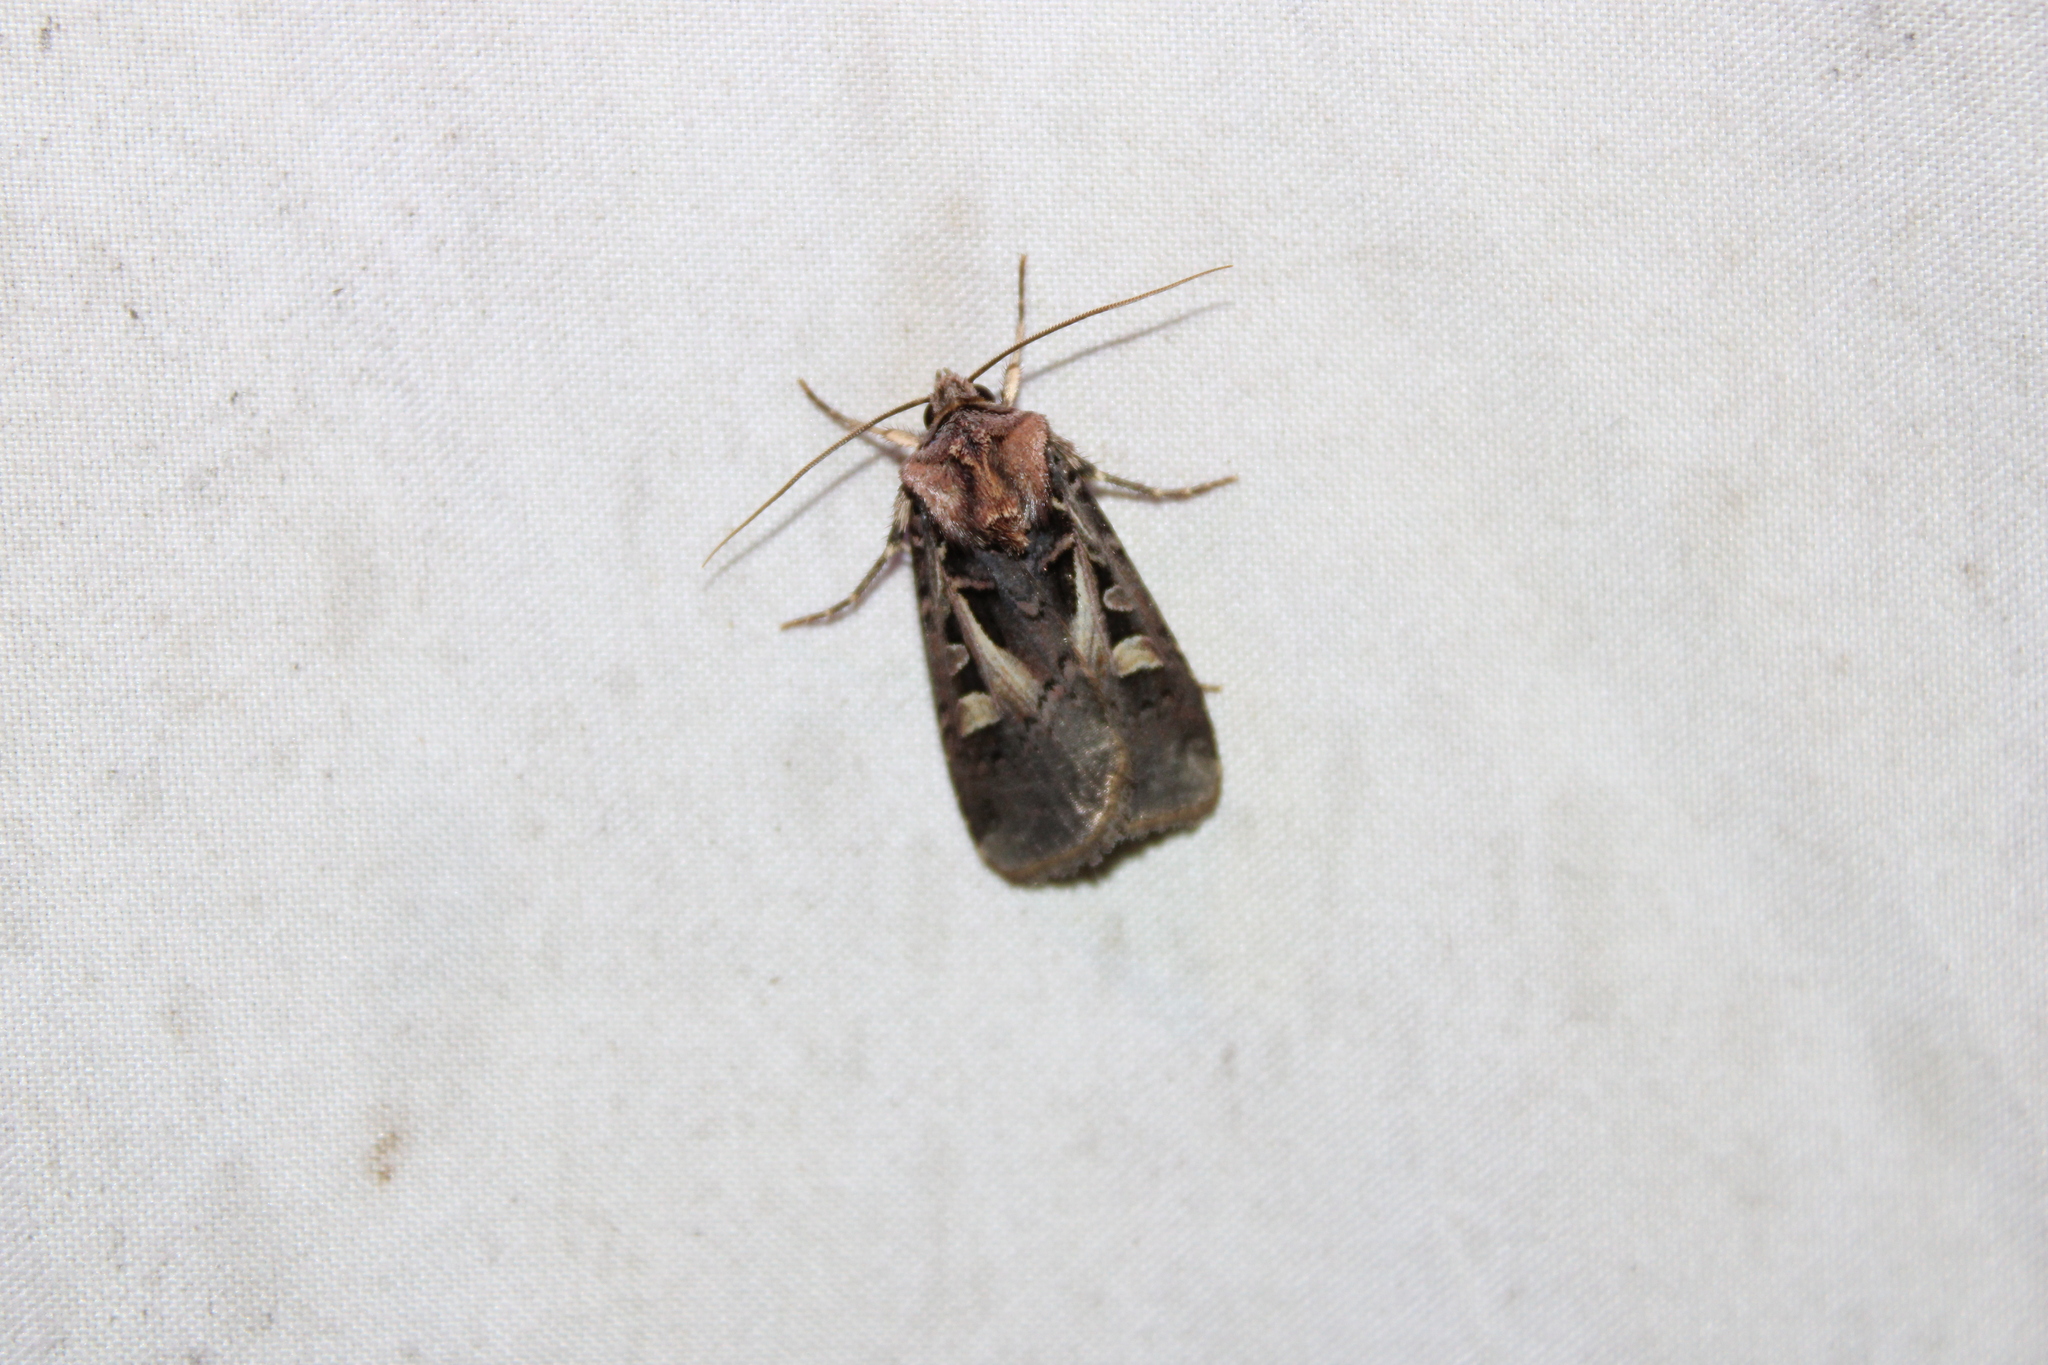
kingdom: Animalia
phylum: Arthropoda
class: Insecta
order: Lepidoptera
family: Noctuidae
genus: Feltia
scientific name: Feltia herilis
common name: Master's dart
